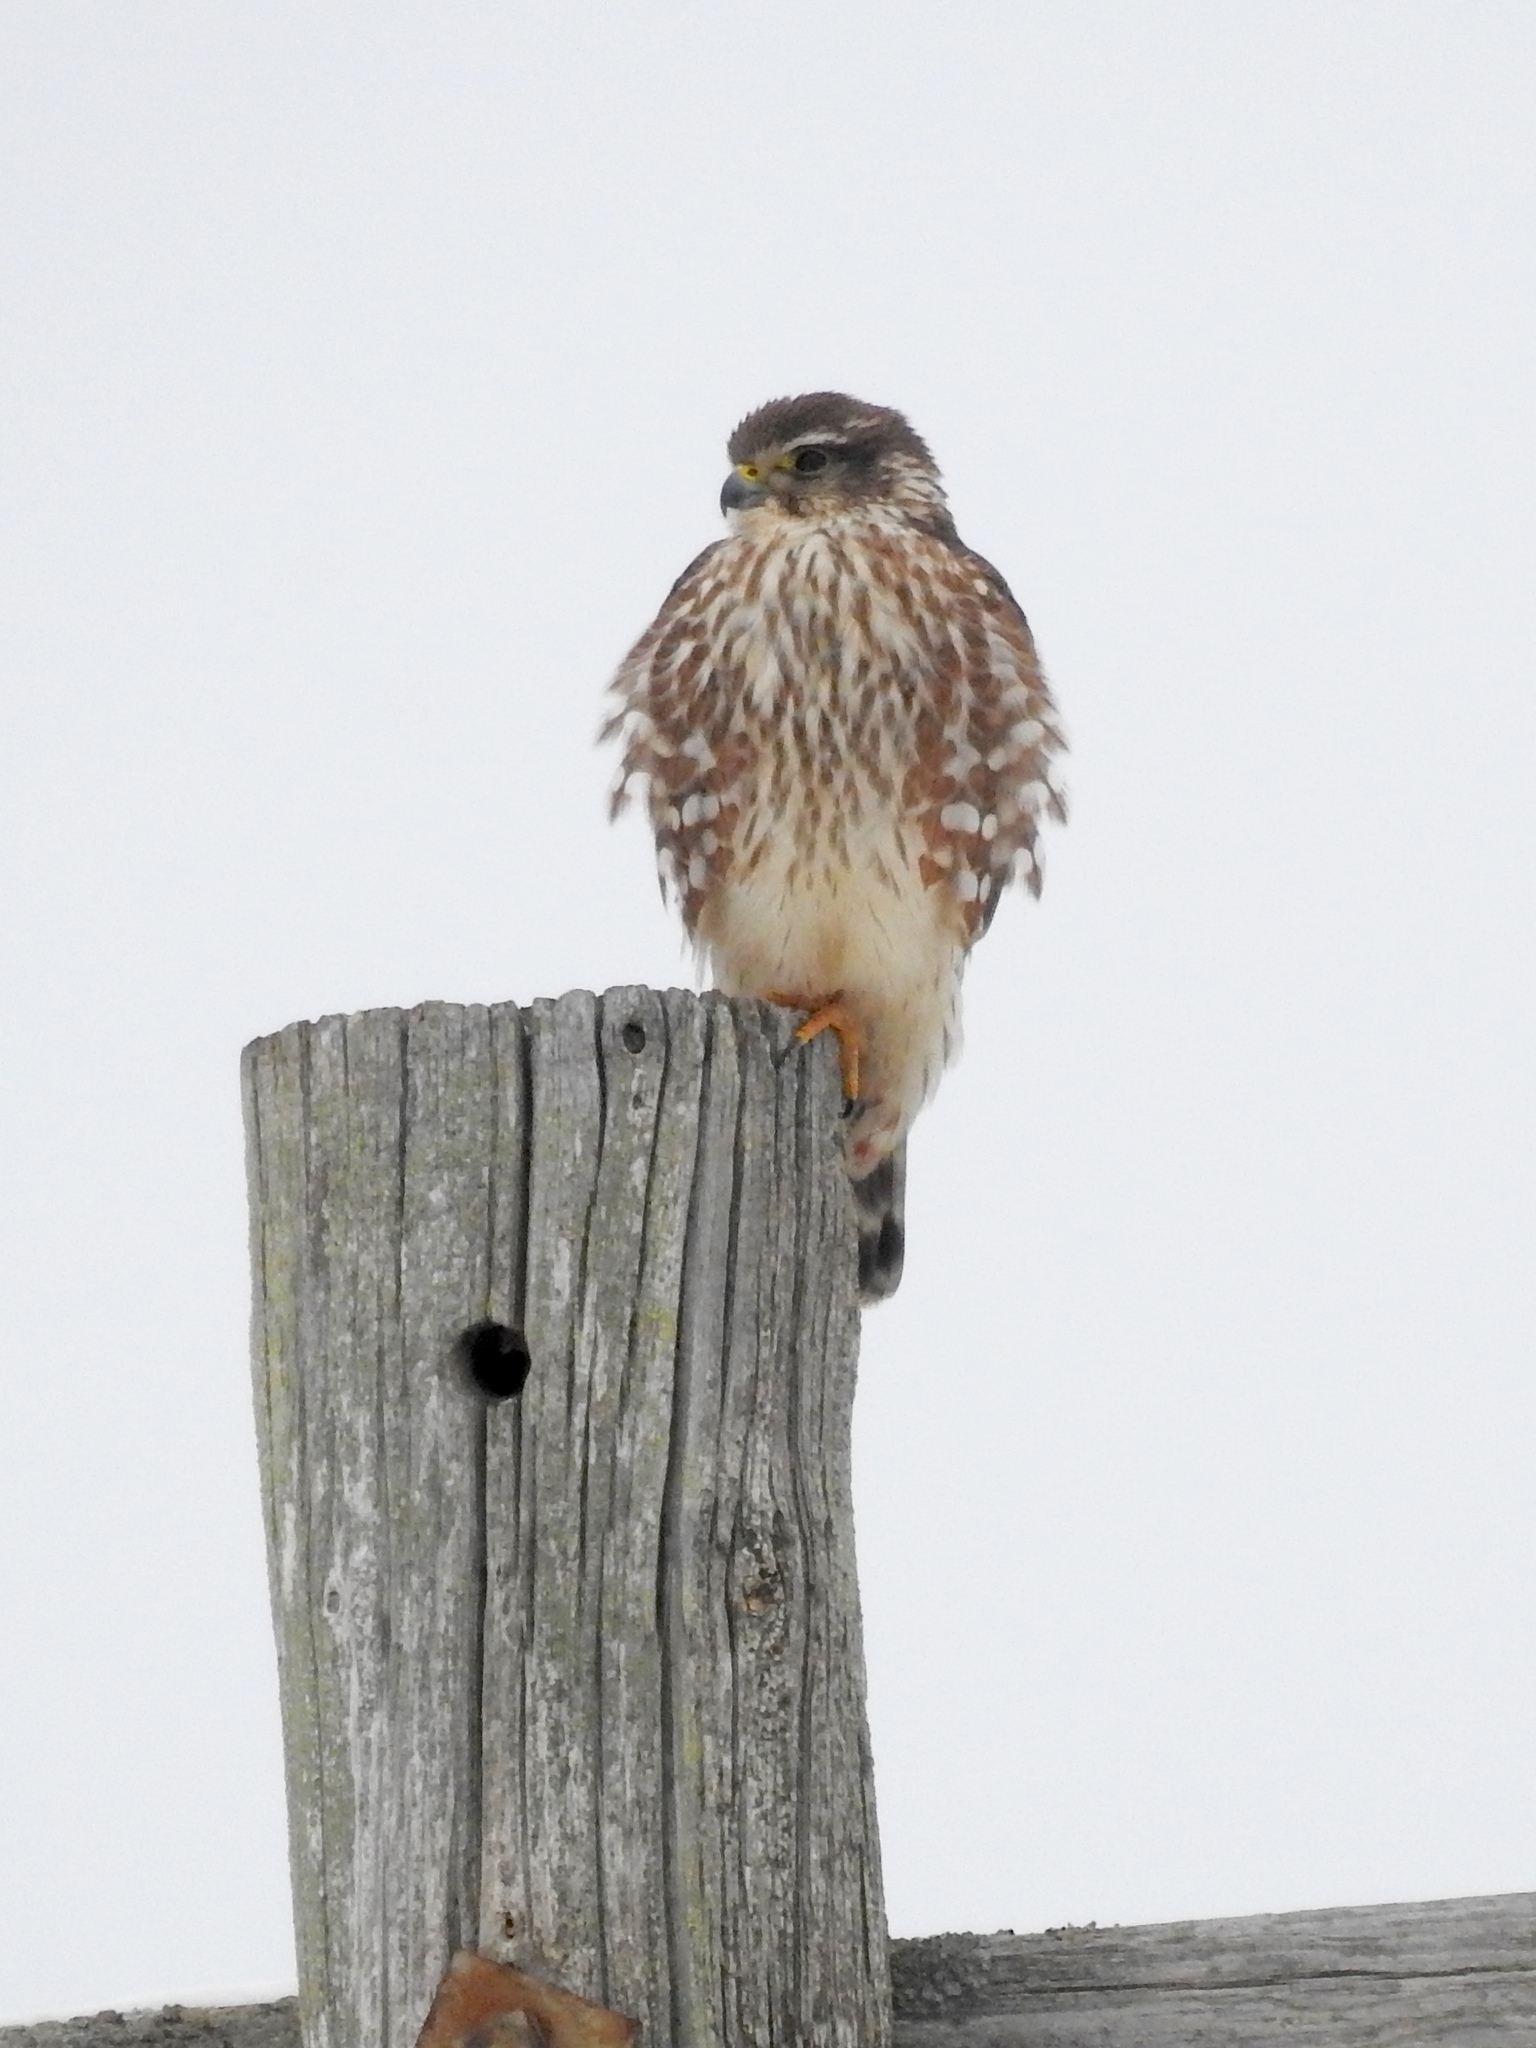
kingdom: Animalia
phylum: Chordata
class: Aves
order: Falconiformes
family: Falconidae
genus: Falco
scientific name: Falco columbarius
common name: Merlin
